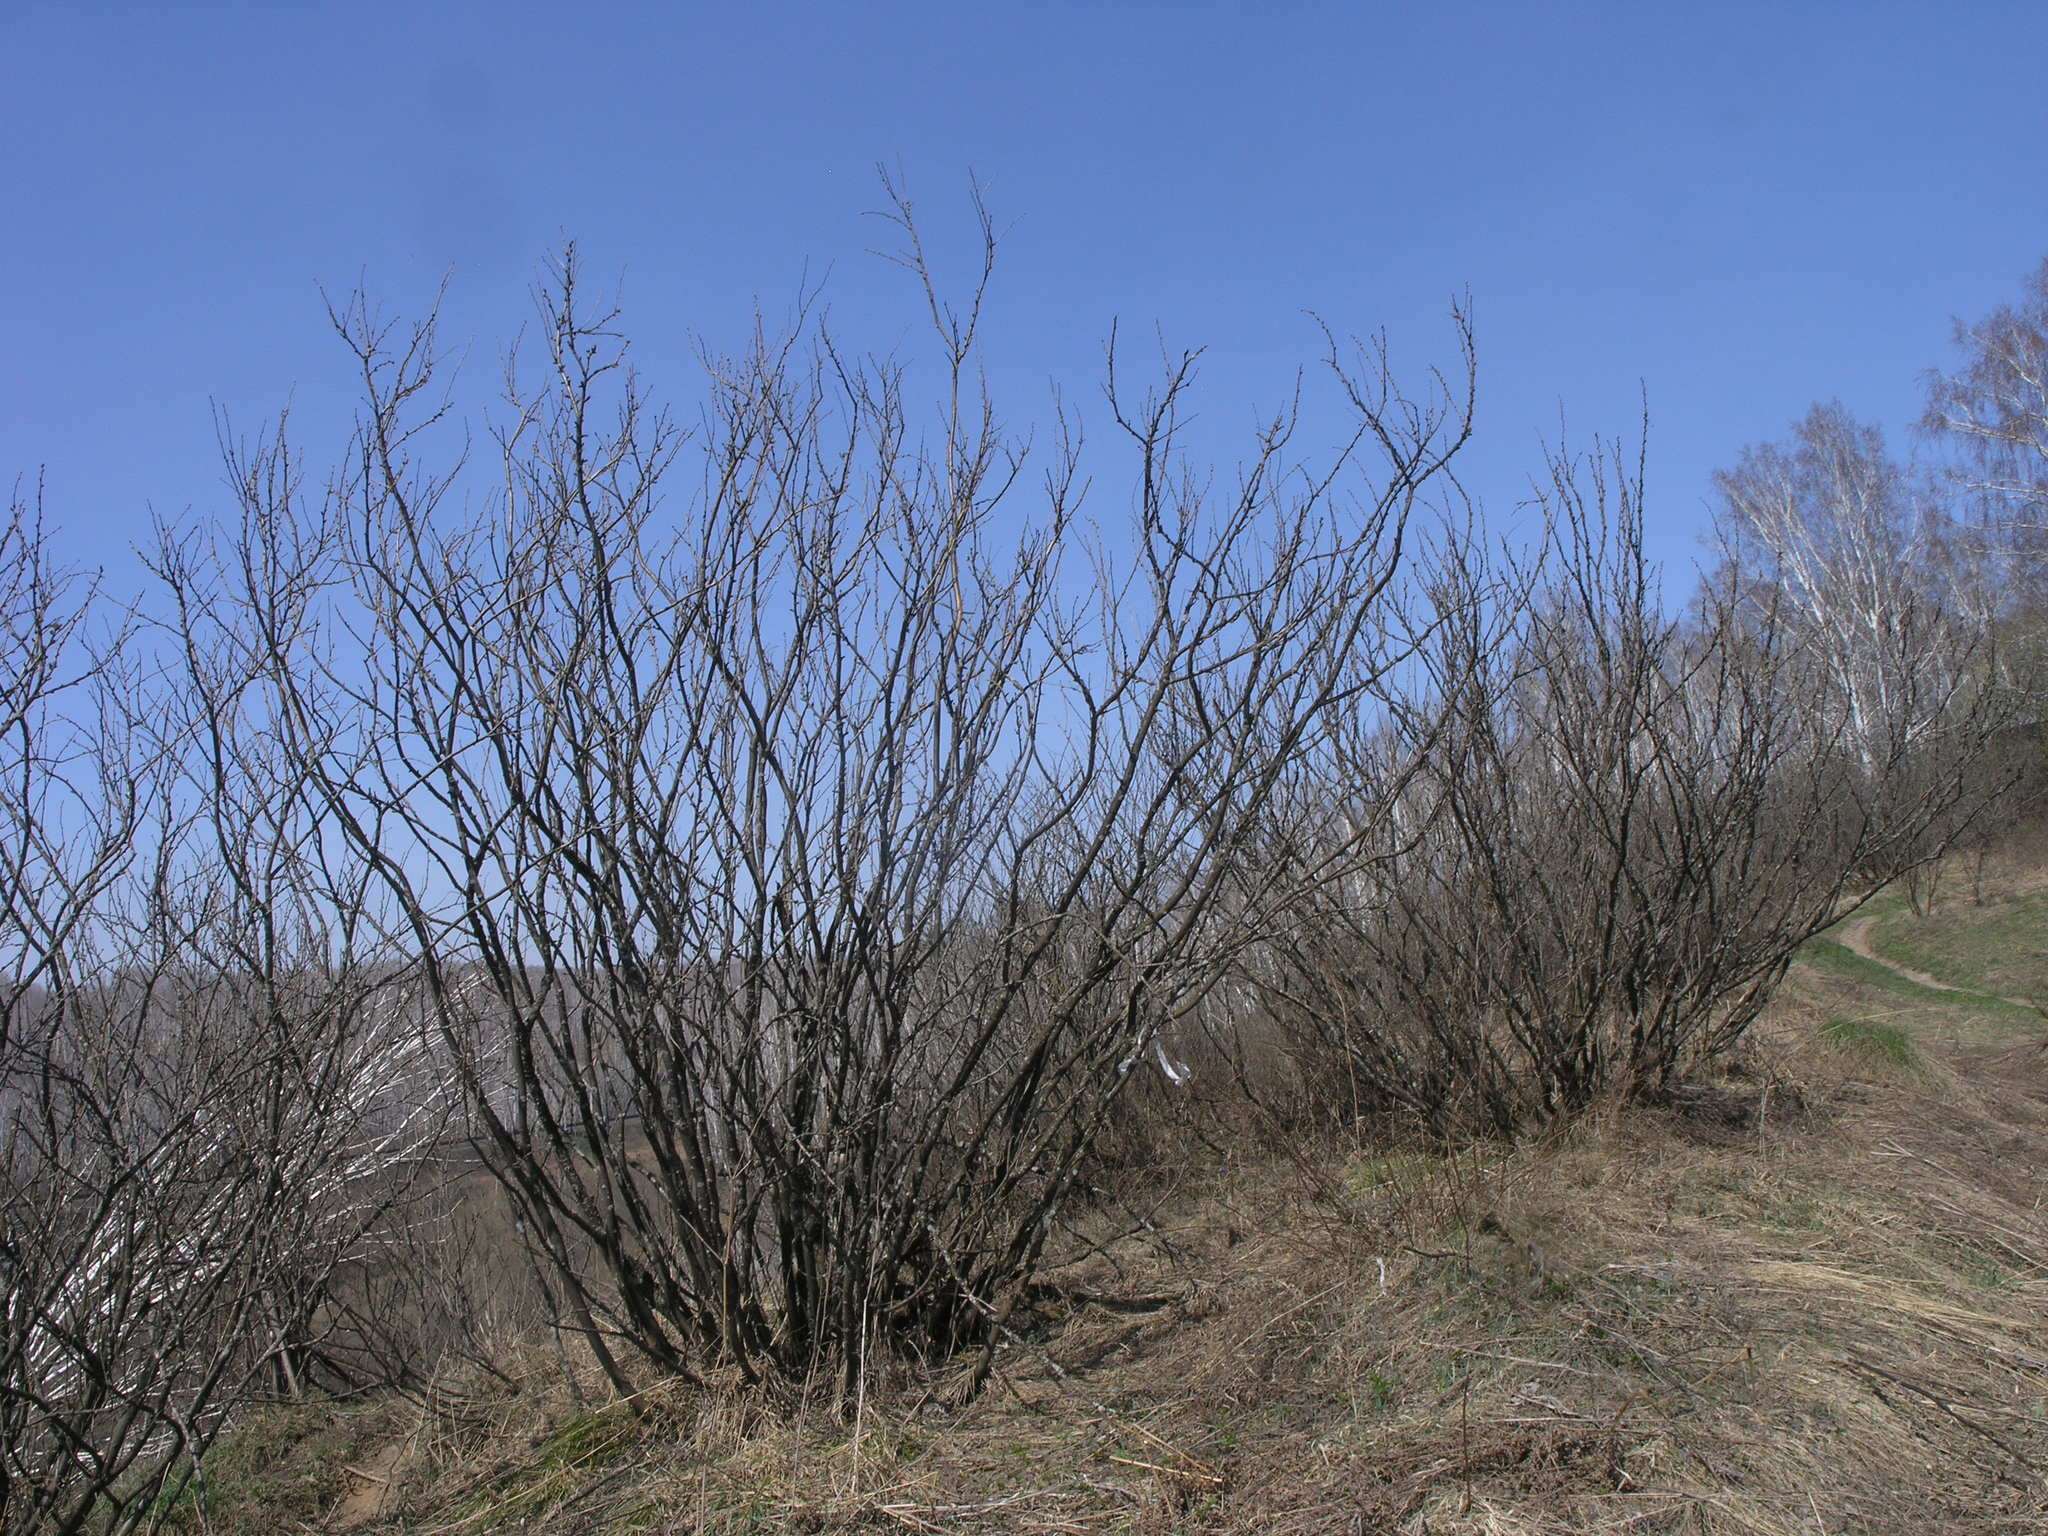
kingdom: Plantae
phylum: Tracheophyta
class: Magnoliopsida
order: Fabales
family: Fabaceae
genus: Caragana
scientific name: Caragana arborescens
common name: Siberian peashrub
